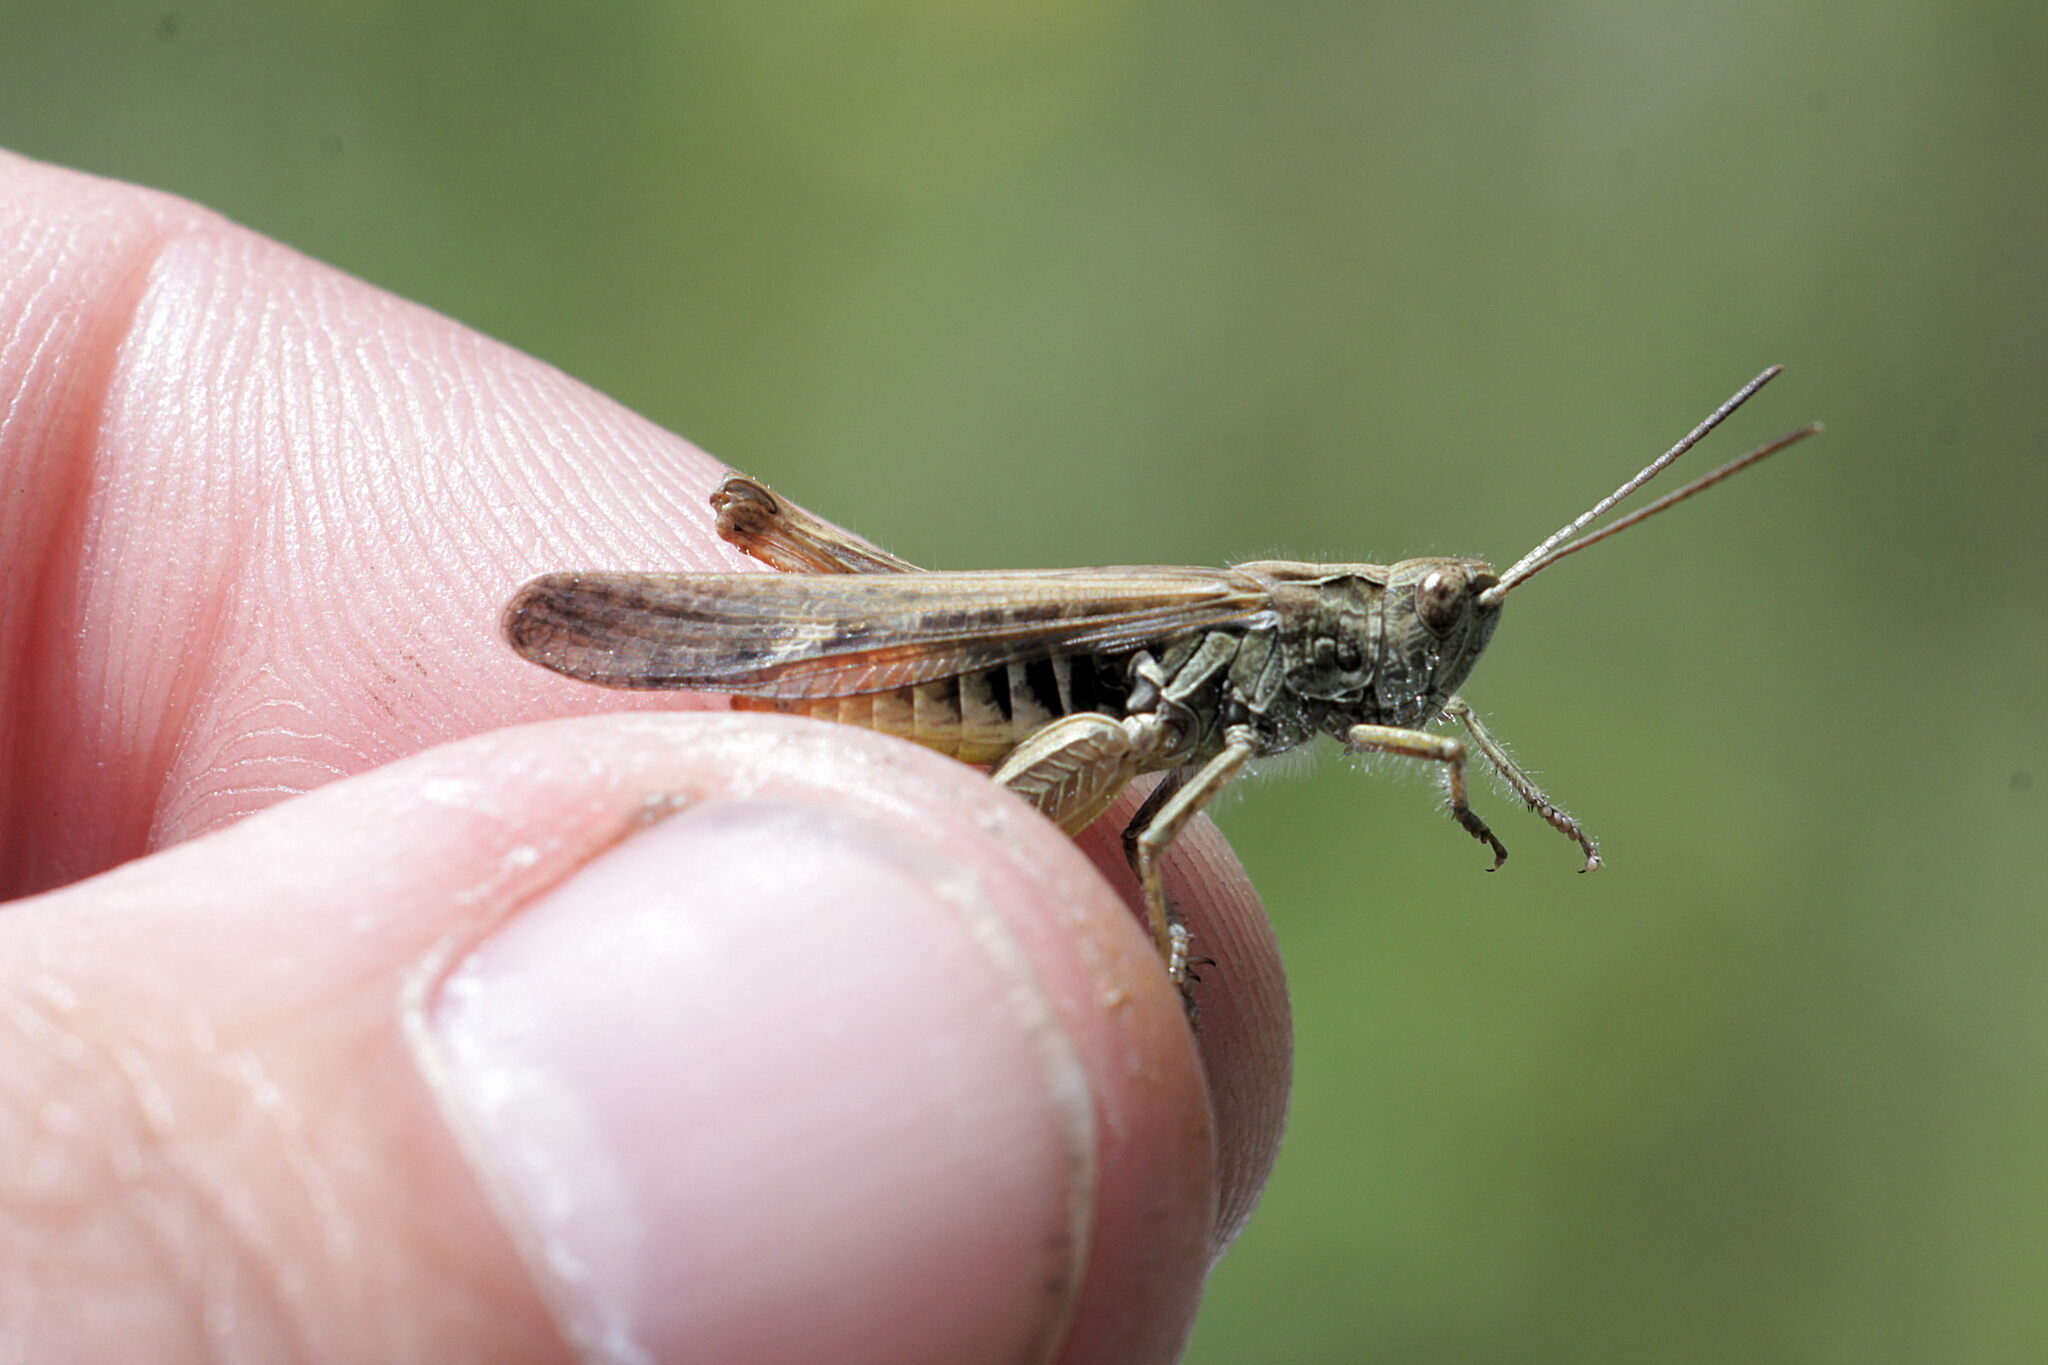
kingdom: Animalia
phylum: Arthropoda
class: Insecta
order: Orthoptera
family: Acrididae
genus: Chorthippus
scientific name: Chorthippus brunneus
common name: Field grasshopper
